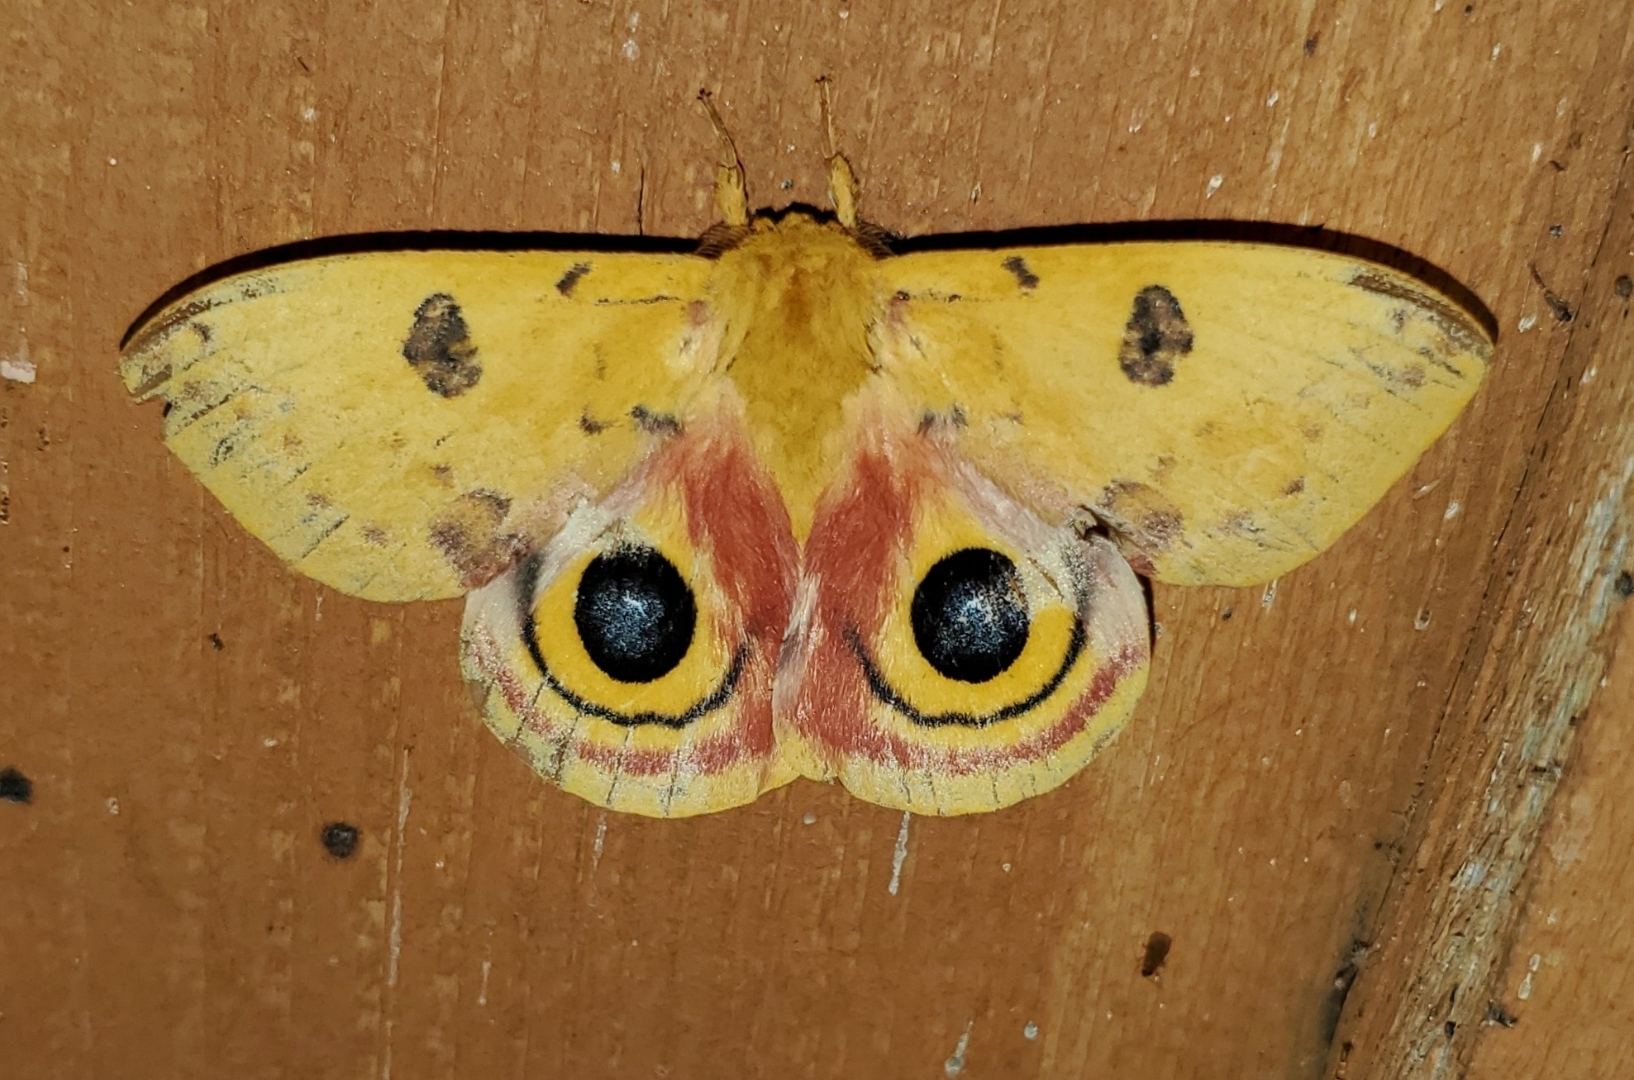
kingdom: Animalia
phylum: Arthropoda
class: Insecta
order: Lepidoptera
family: Saturniidae
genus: Automeris
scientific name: Automeris io
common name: Io moth
